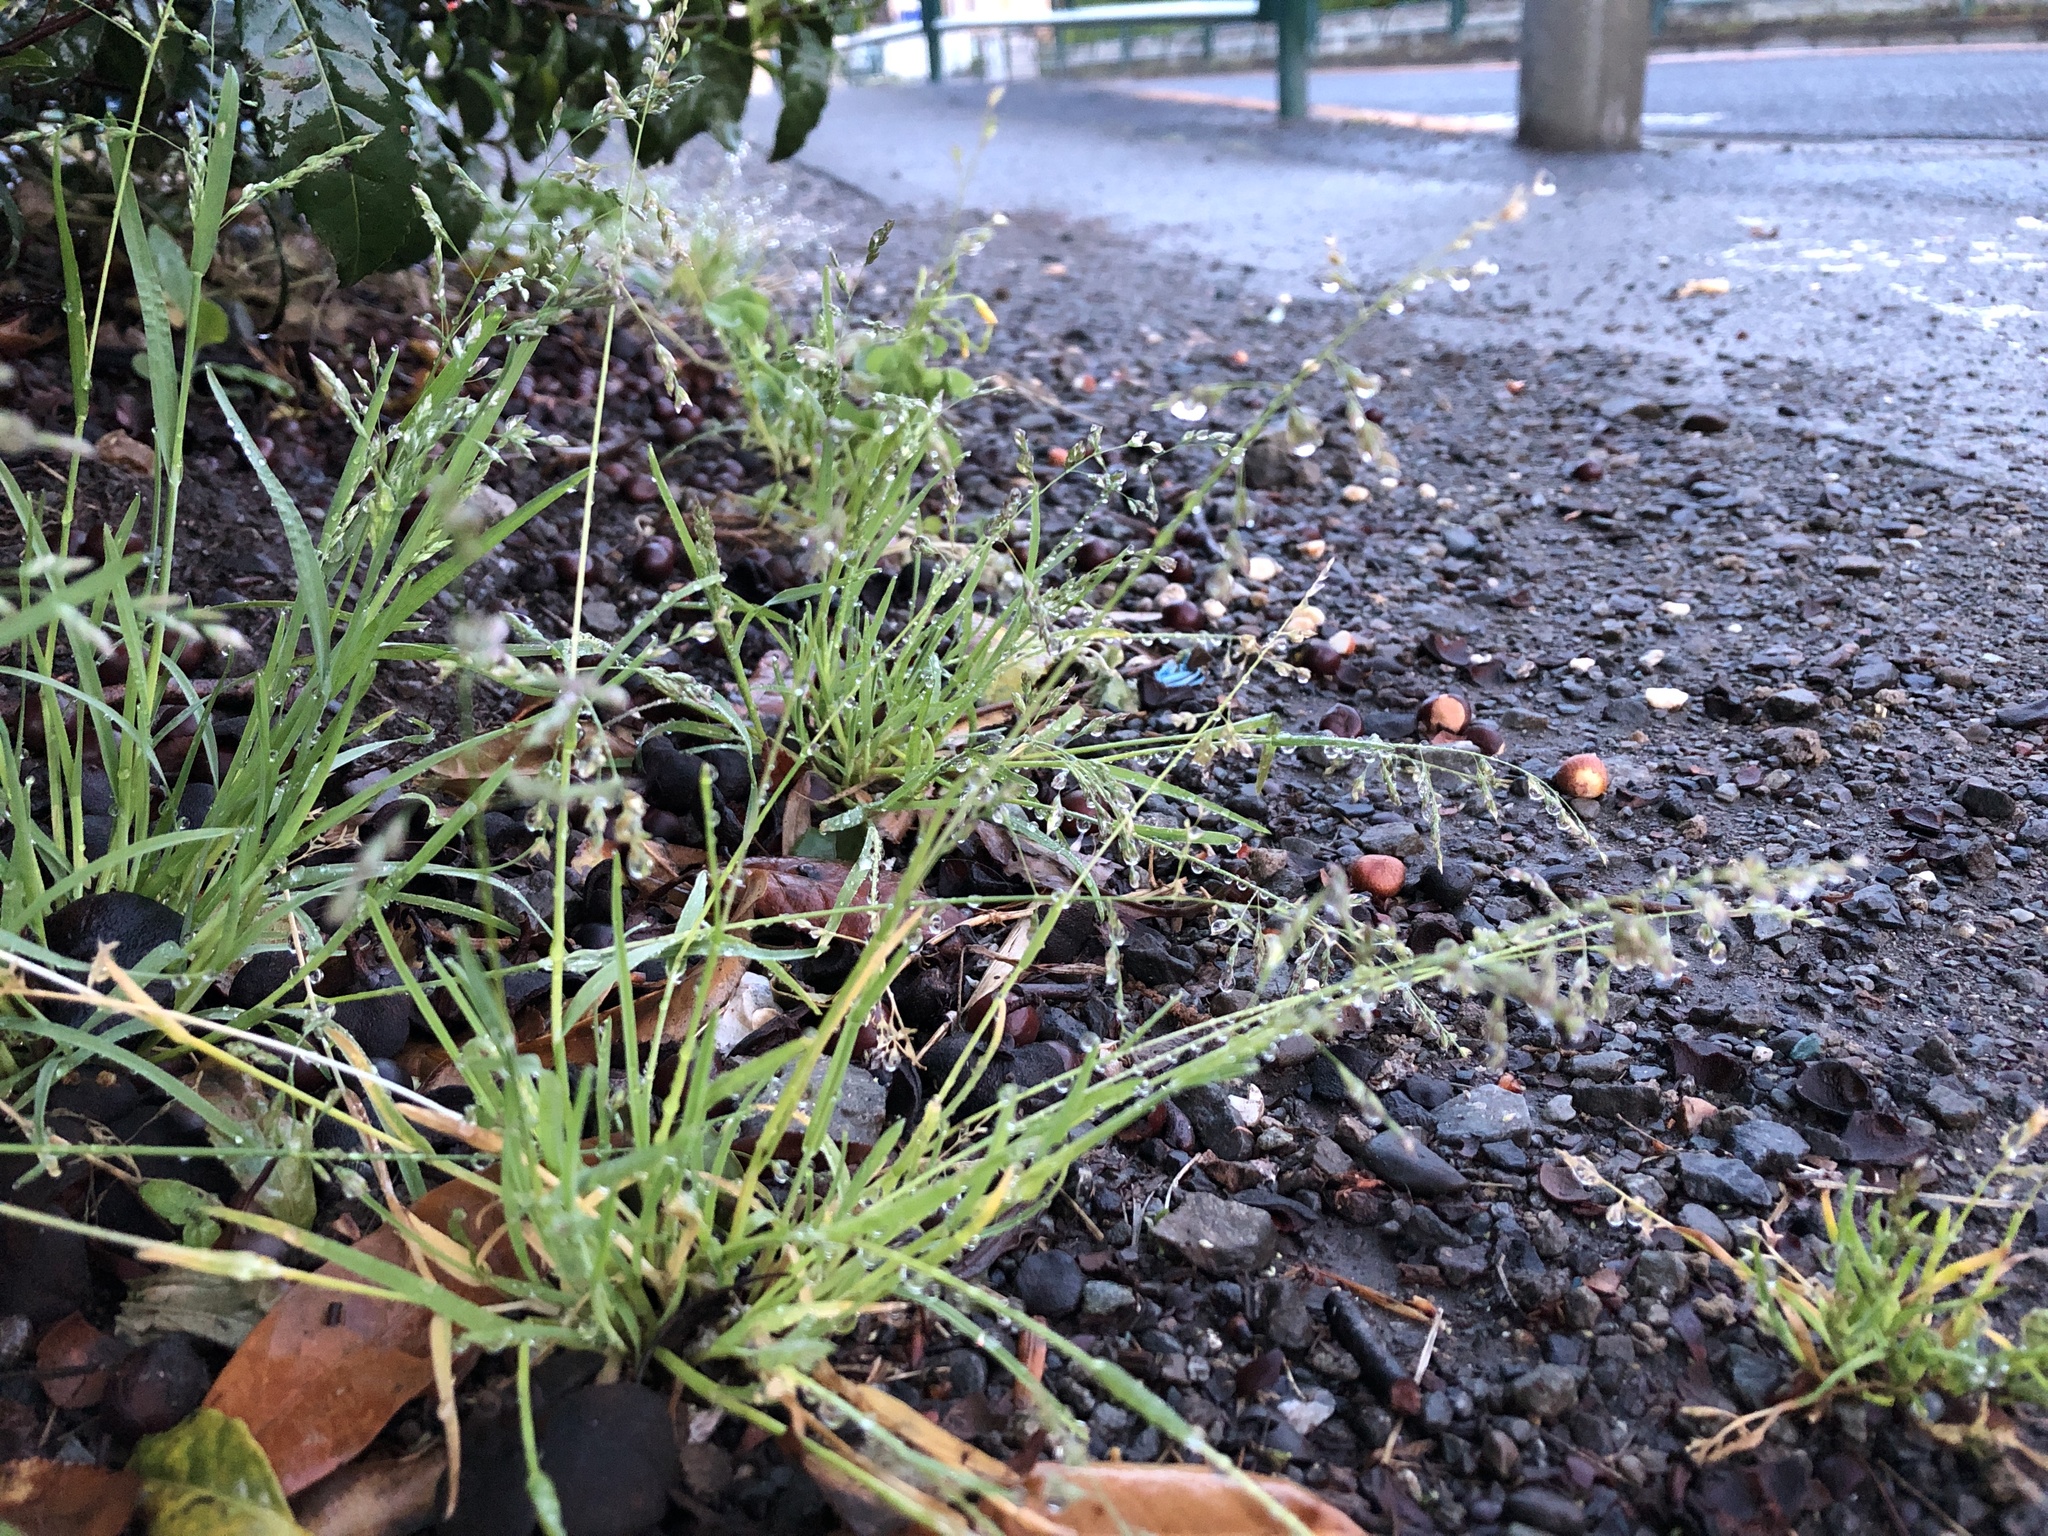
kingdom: Plantae
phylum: Tracheophyta
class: Liliopsida
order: Poales
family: Poaceae
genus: Poa
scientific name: Poa annua
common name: Annual bluegrass
